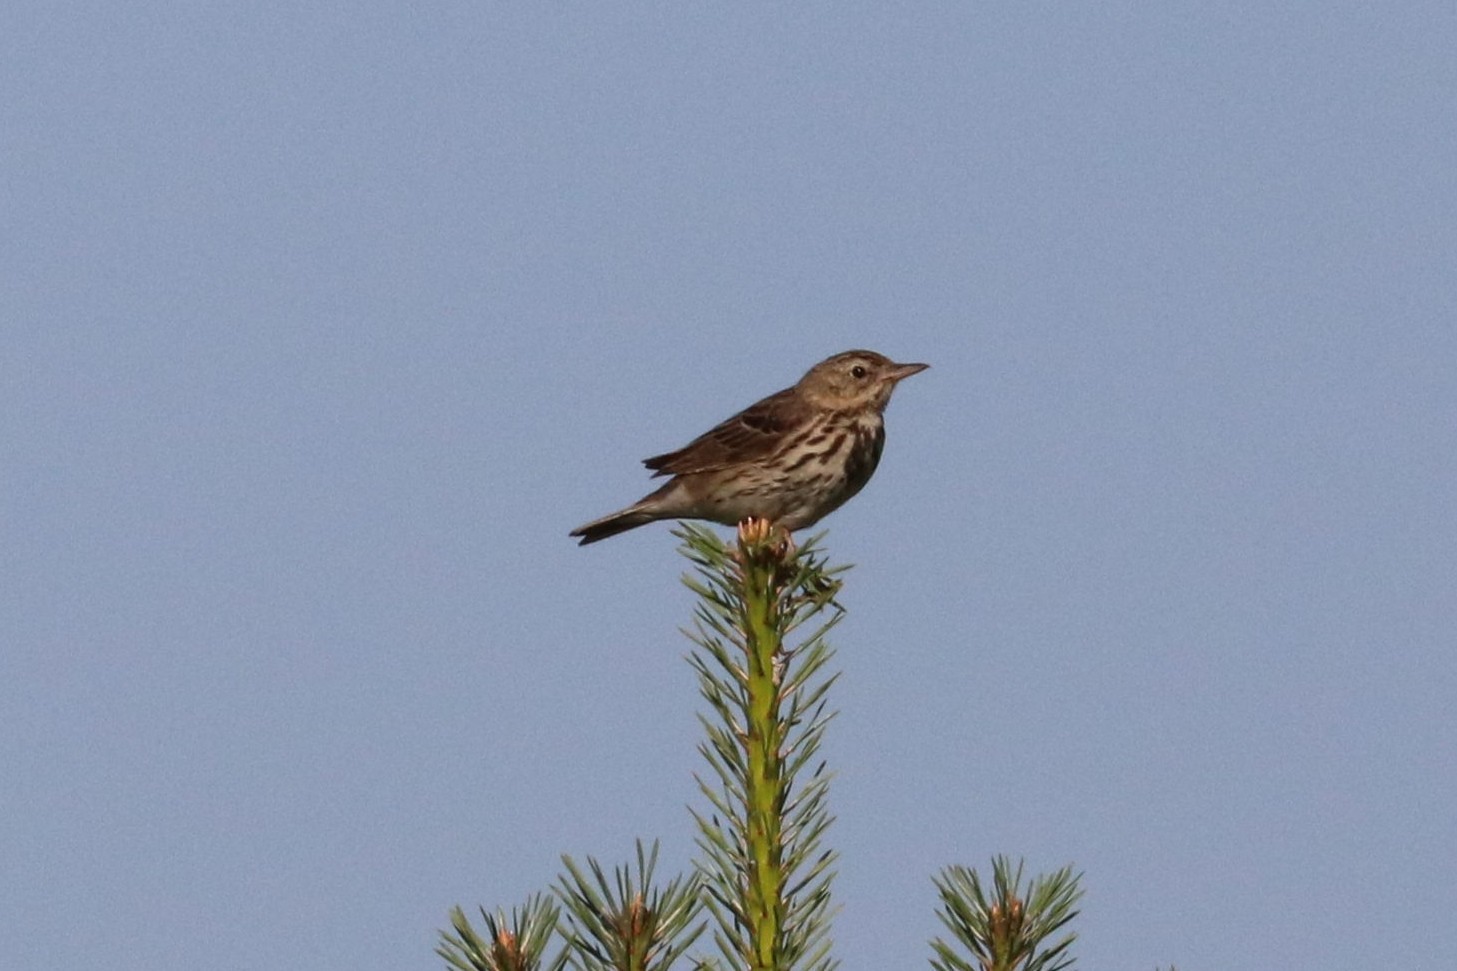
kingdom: Animalia
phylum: Chordata
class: Aves
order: Passeriformes
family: Motacillidae
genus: Anthus
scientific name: Anthus trivialis
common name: Tree pipit
